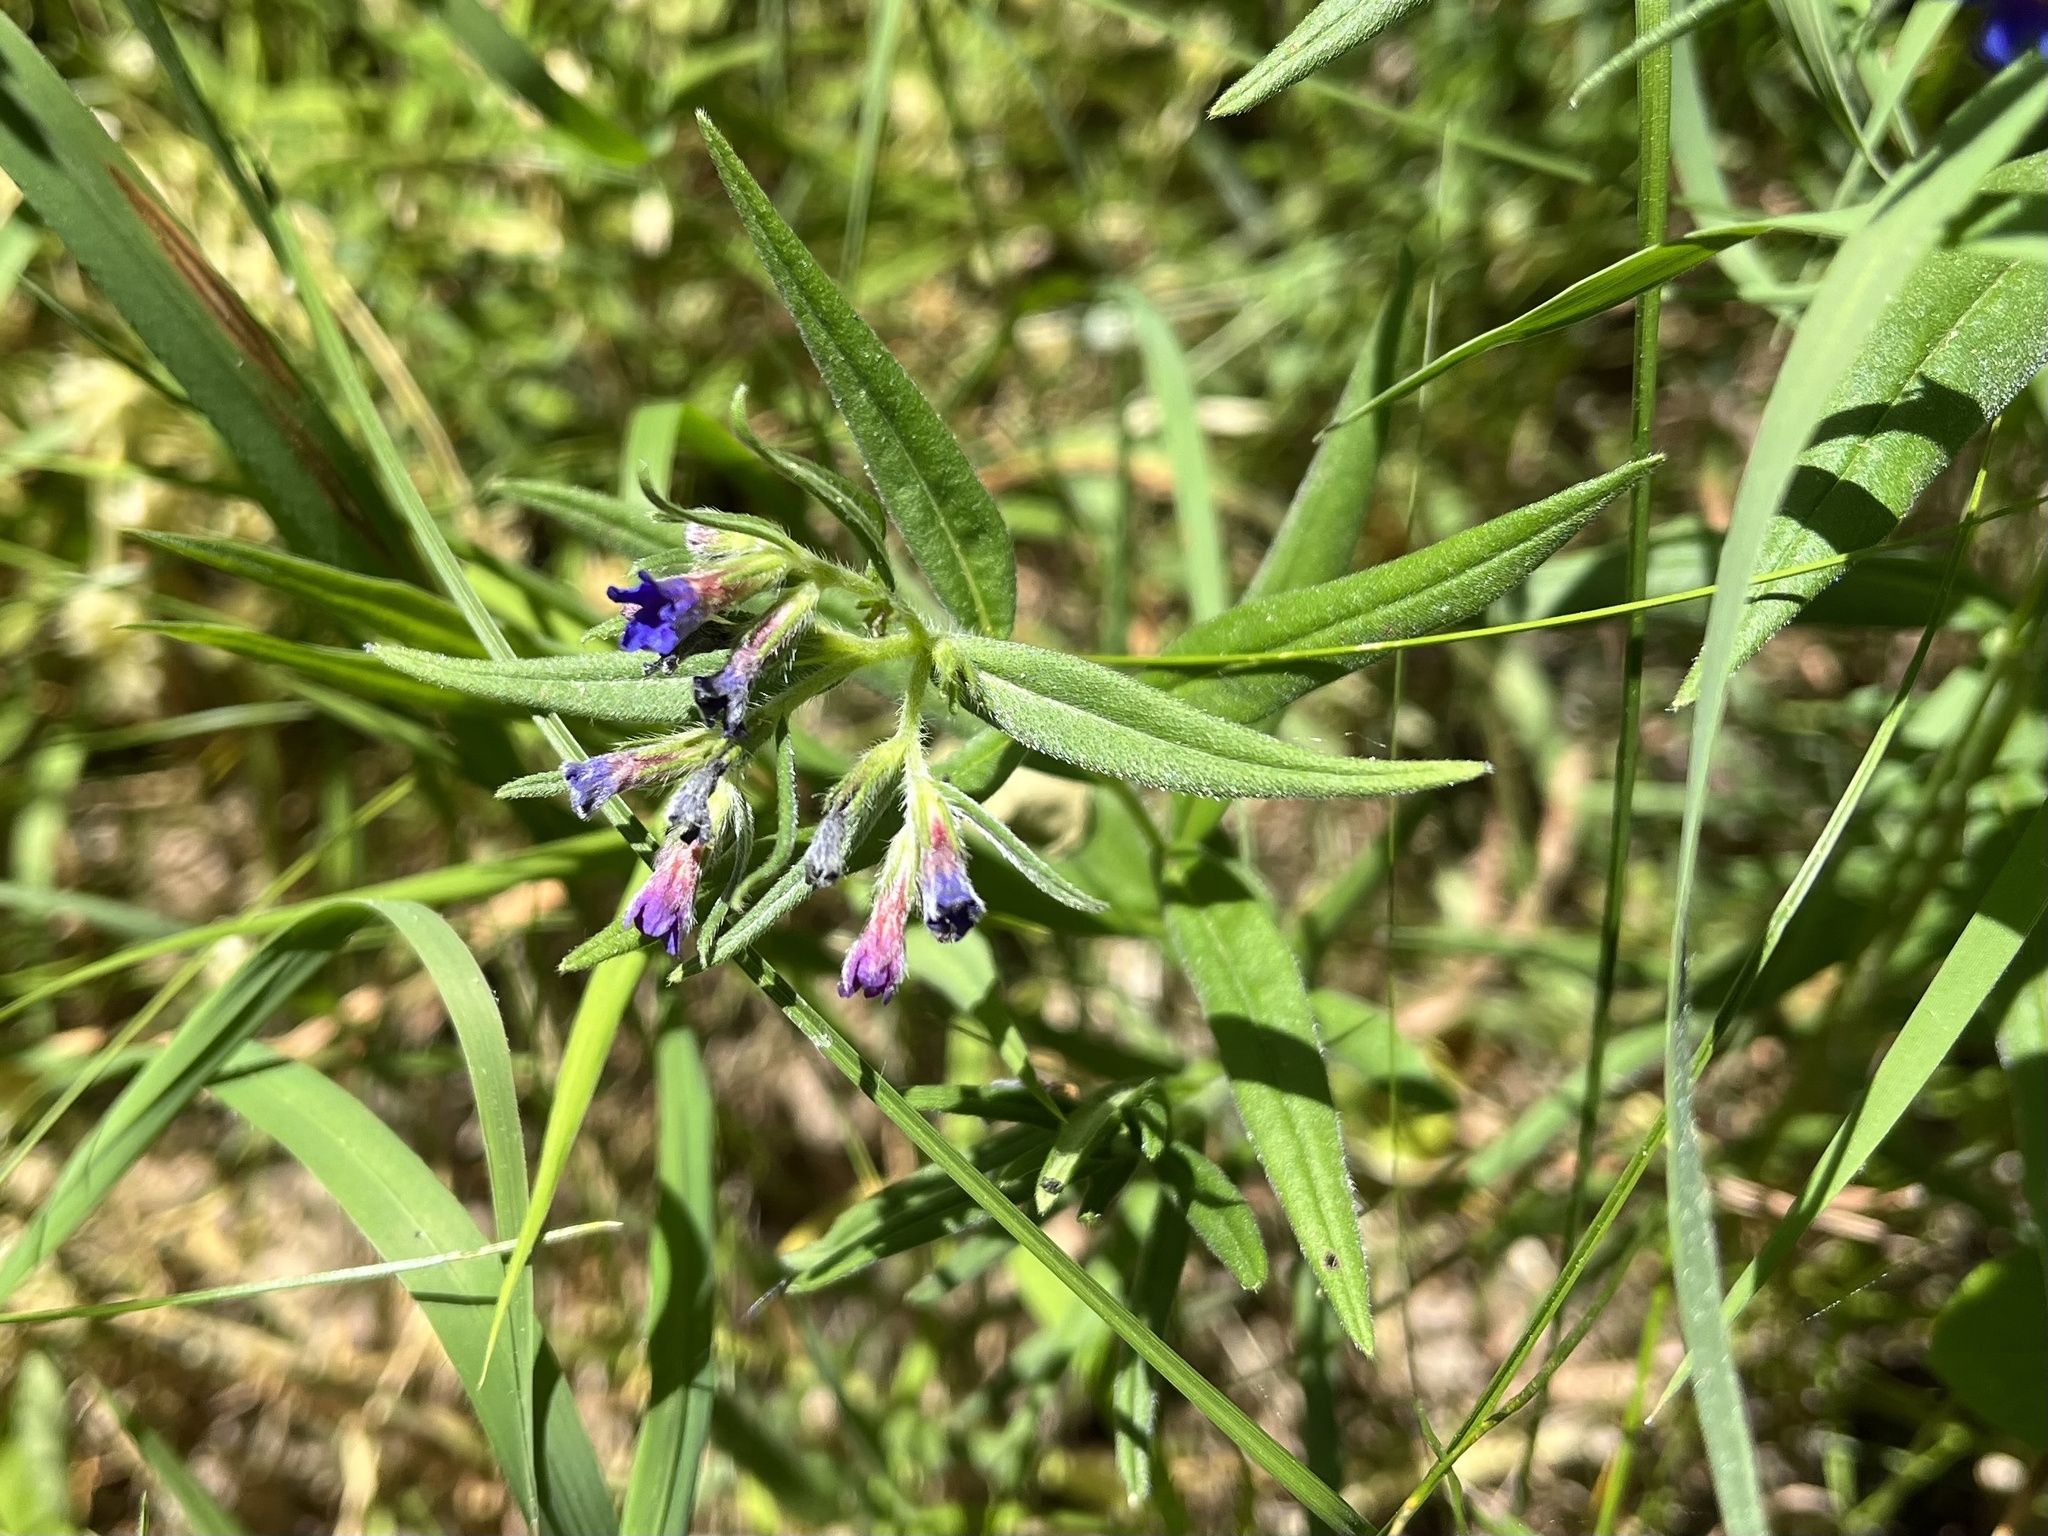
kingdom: Plantae
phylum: Tracheophyta
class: Magnoliopsida
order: Boraginales
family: Boraginaceae
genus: Aegonychon
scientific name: Aegonychon purpurocaeruleum
